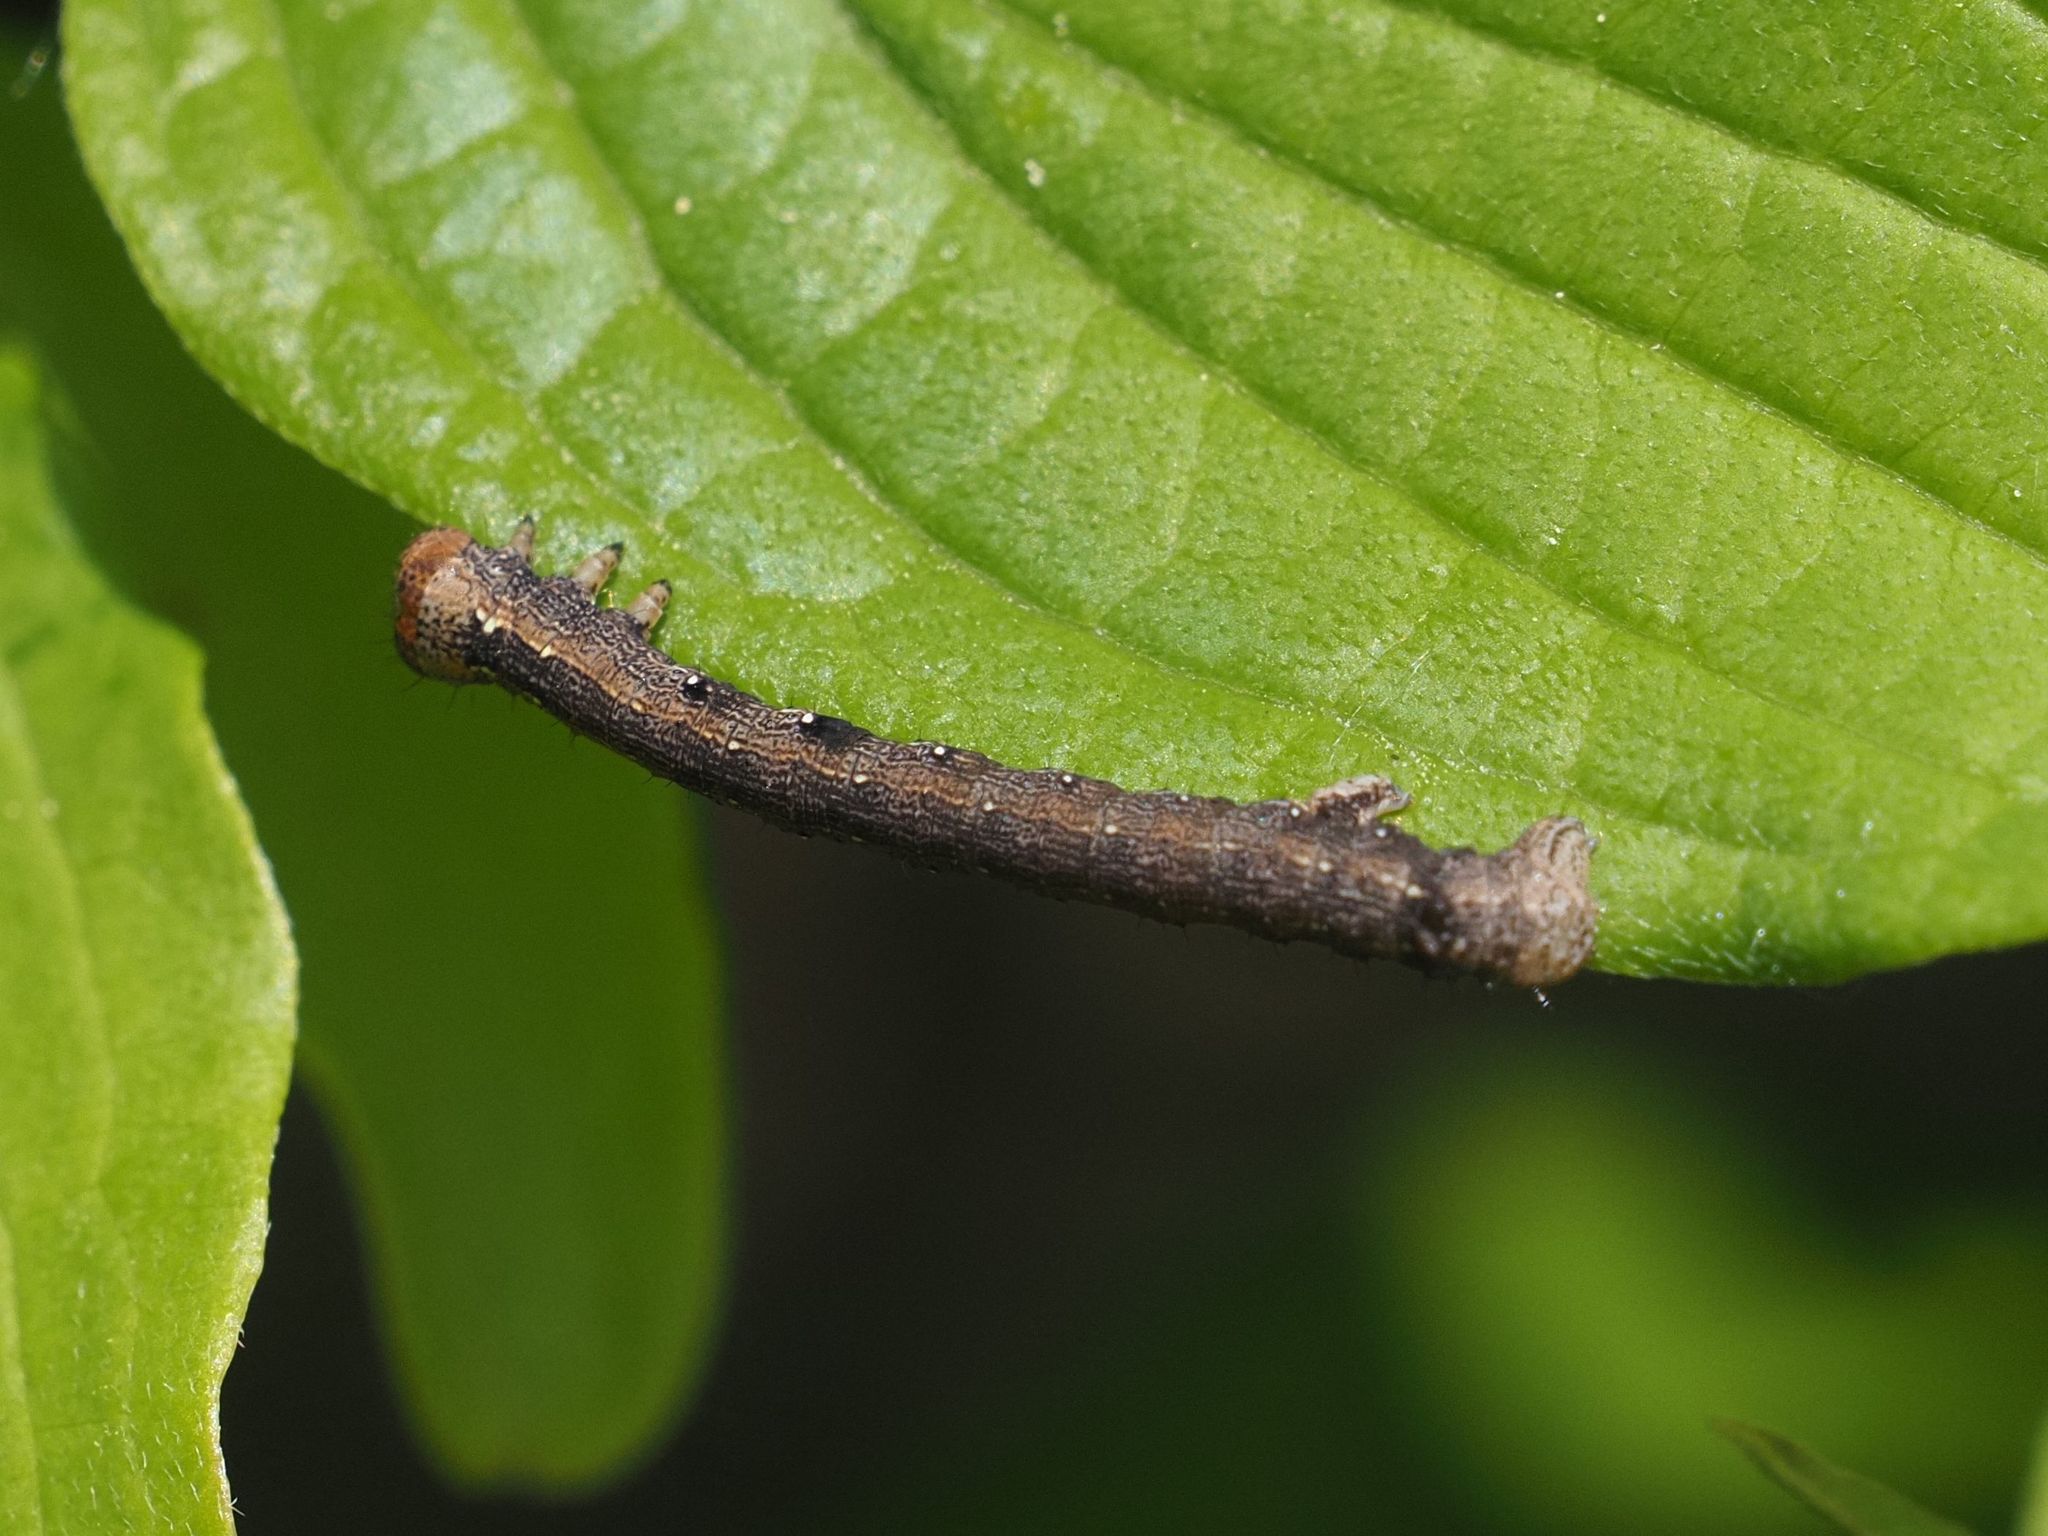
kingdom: Animalia
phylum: Arthropoda
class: Insecta
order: Lepidoptera
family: Geometridae
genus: Colotois
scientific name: Colotois pennaria
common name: Feathered thorn
